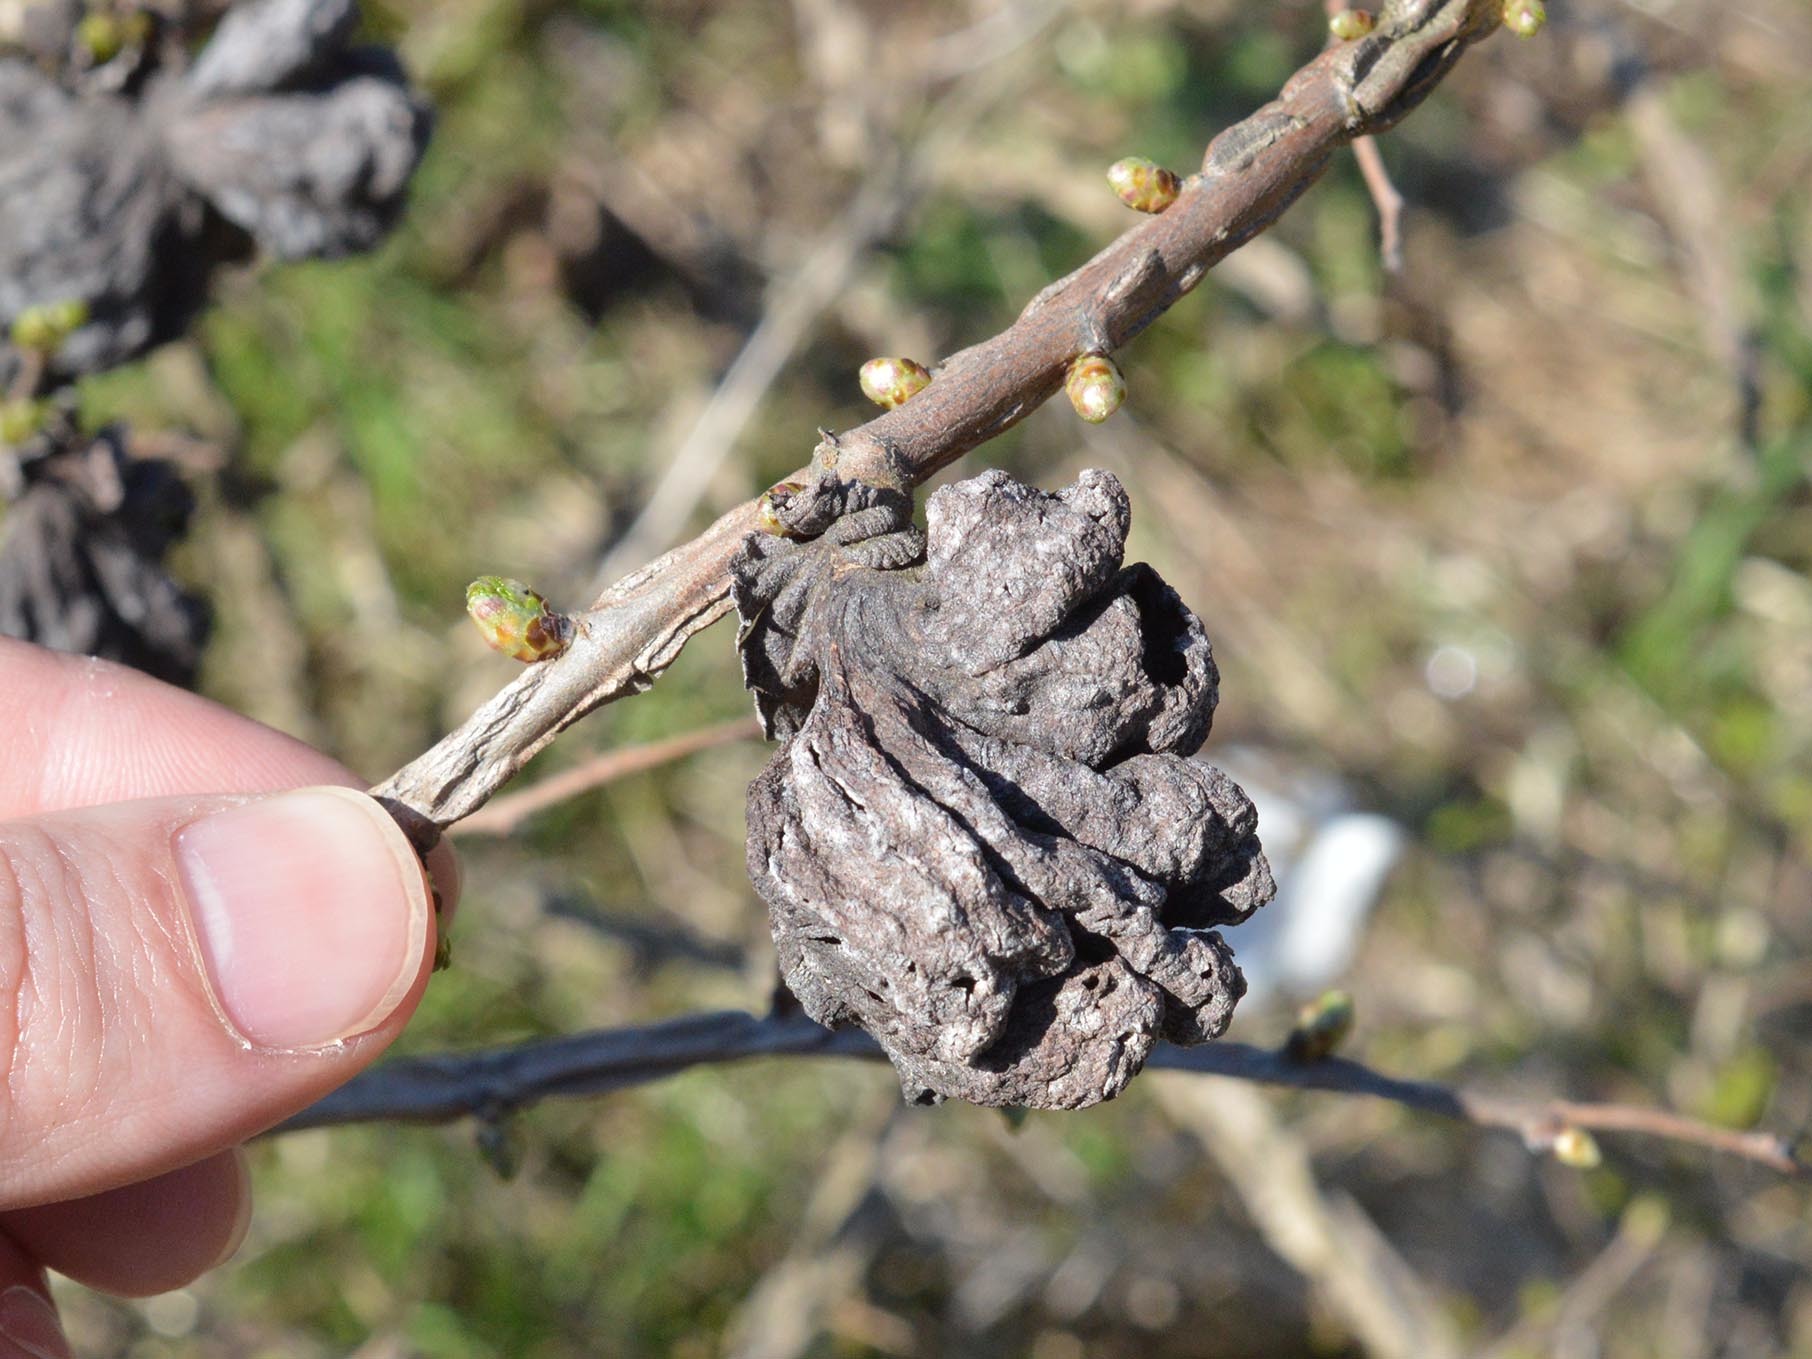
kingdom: Animalia
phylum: Arthropoda
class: Insecta
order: Hemiptera
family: Aphididae
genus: Eriosoma
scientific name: Eriosoma lanuginosum
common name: Aphid
